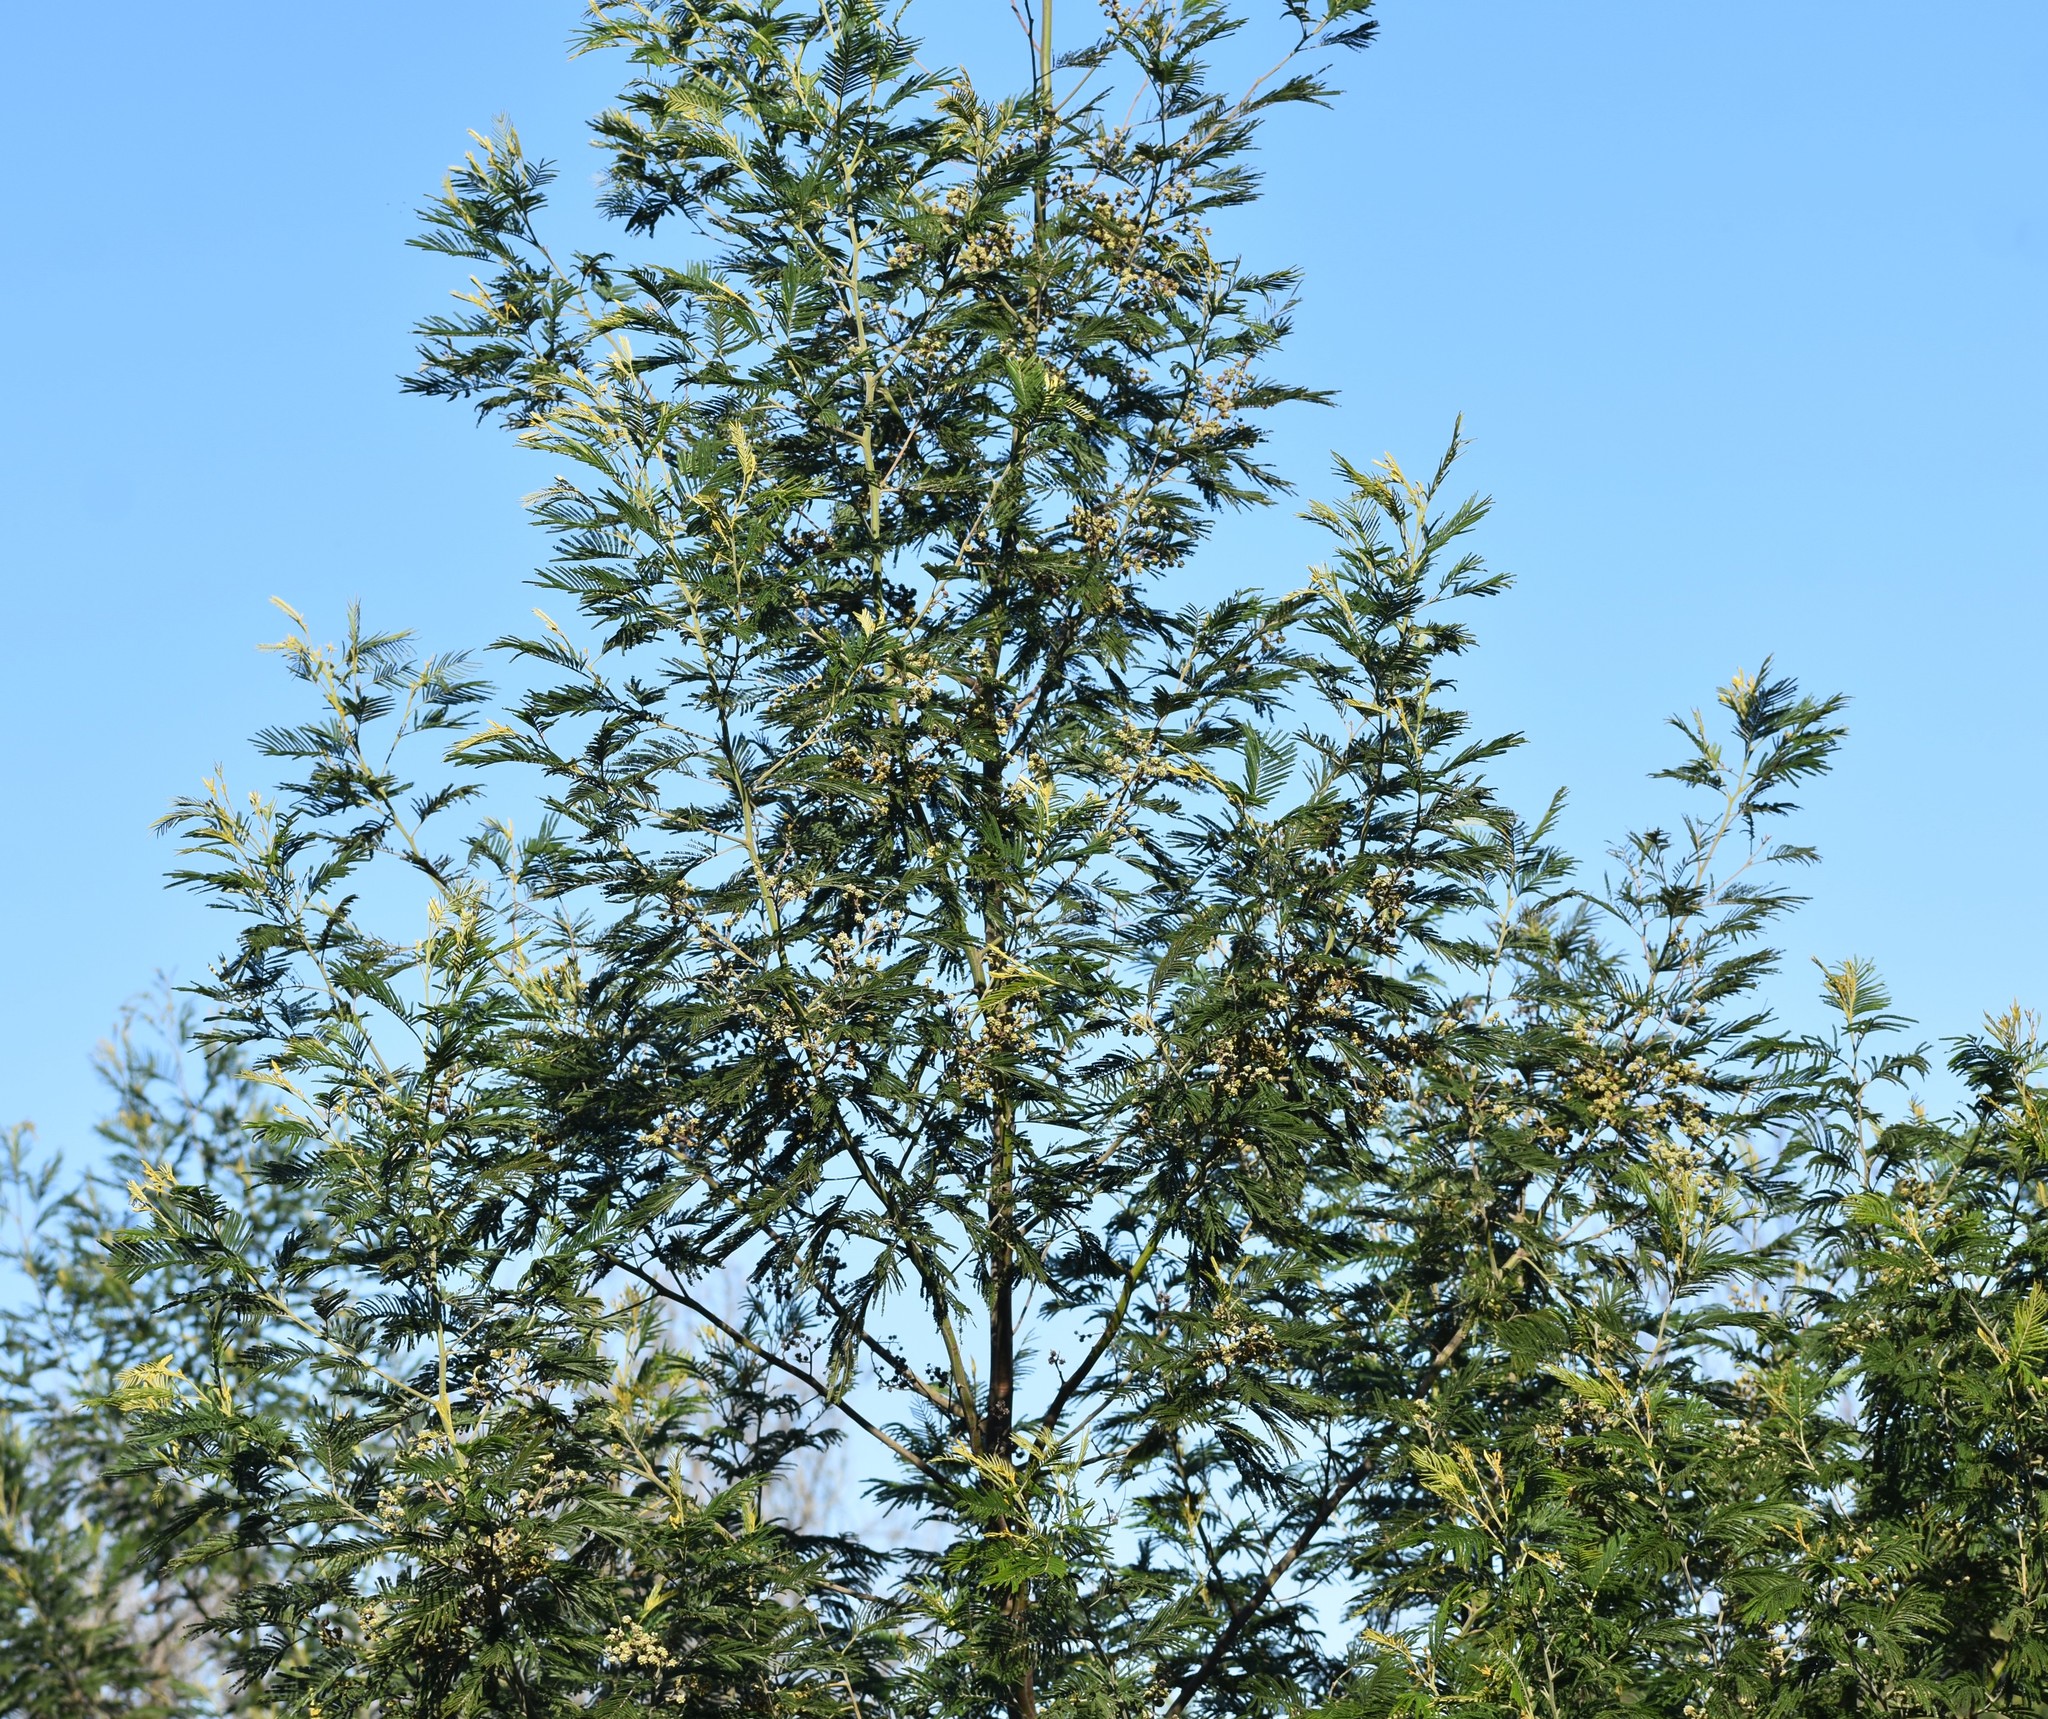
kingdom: Plantae
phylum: Tracheophyta
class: Magnoliopsida
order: Fabales
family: Fabaceae
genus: Acacia
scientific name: Acacia mearnsii
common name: Black wattle
